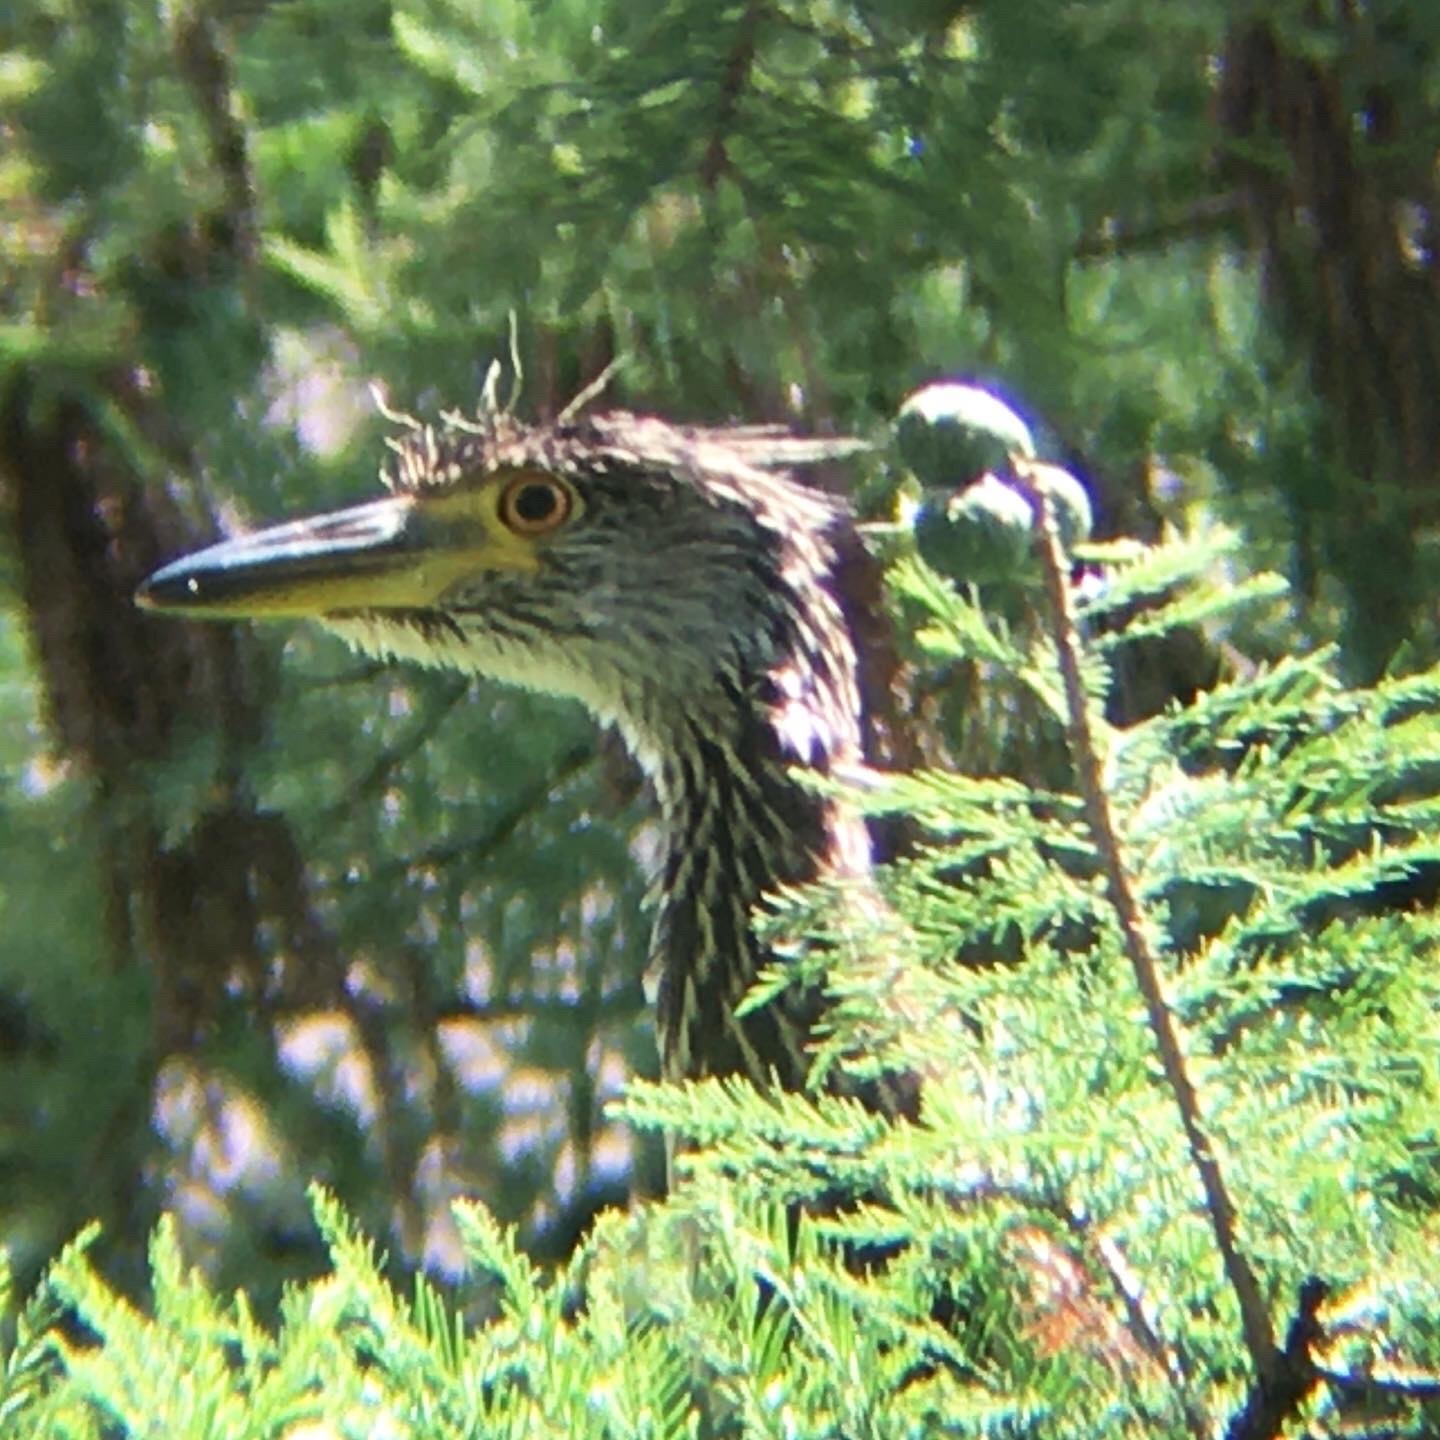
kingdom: Animalia
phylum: Chordata
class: Aves
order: Pelecaniformes
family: Ardeidae
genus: Nyctanassa
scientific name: Nyctanassa violacea
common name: Yellow-crowned night heron
